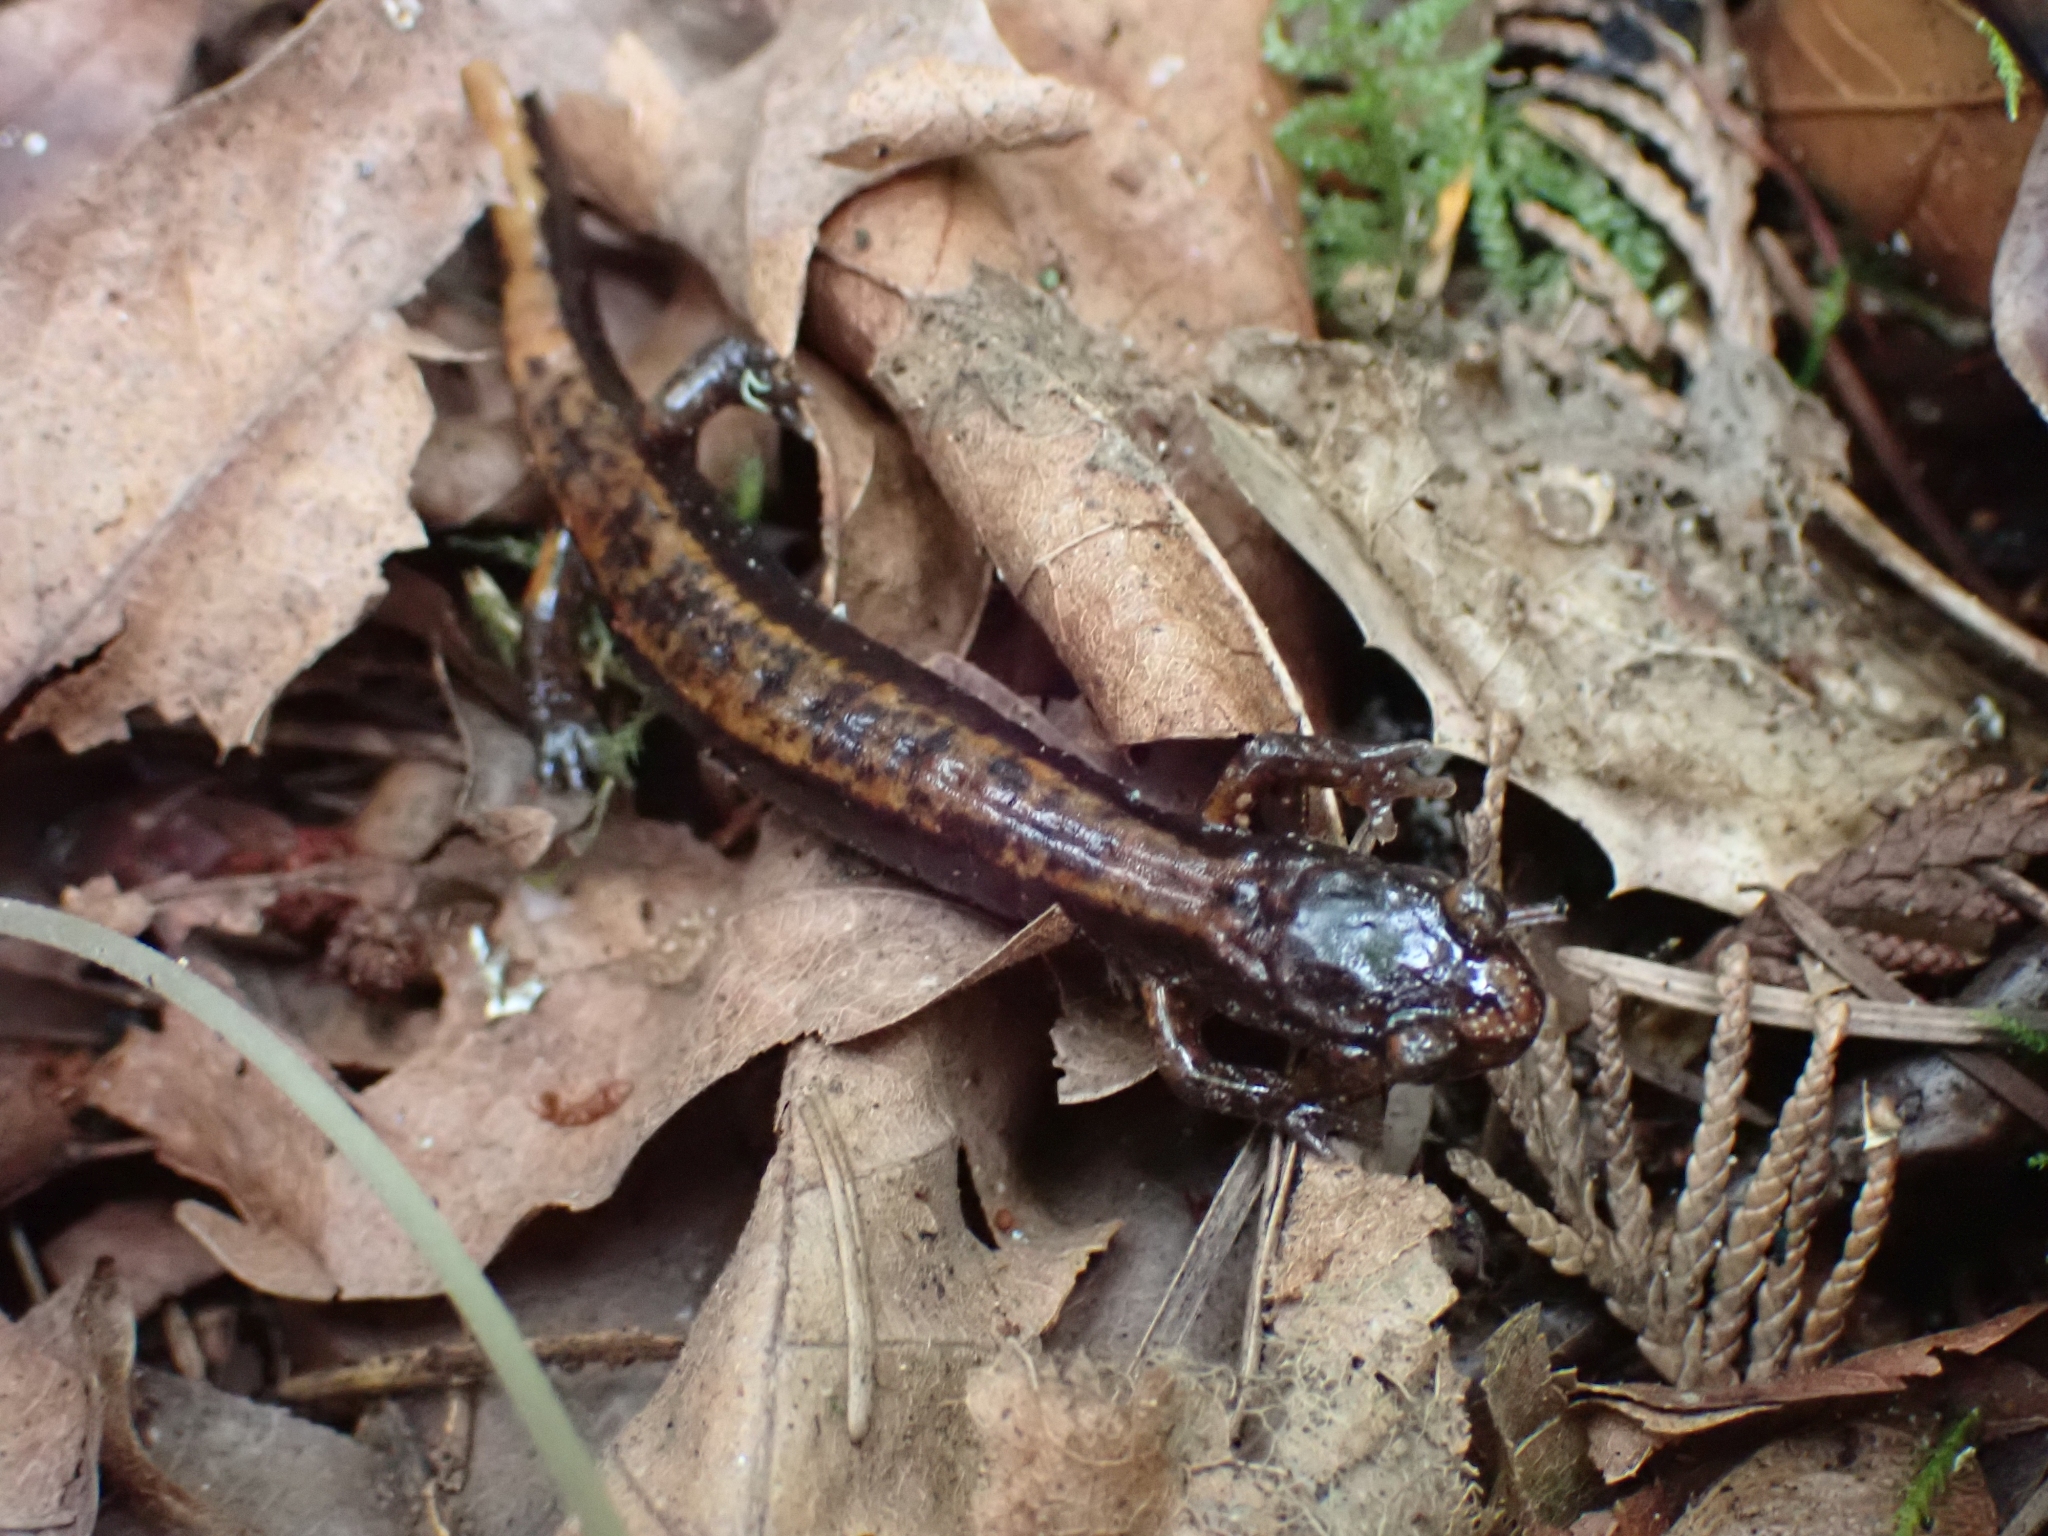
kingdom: Animalia
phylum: Chordata
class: Amphibia
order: Caudata
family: Plethodontidae
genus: Plethodon
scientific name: Plethodon vehiculum
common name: Western red-backed salamander
